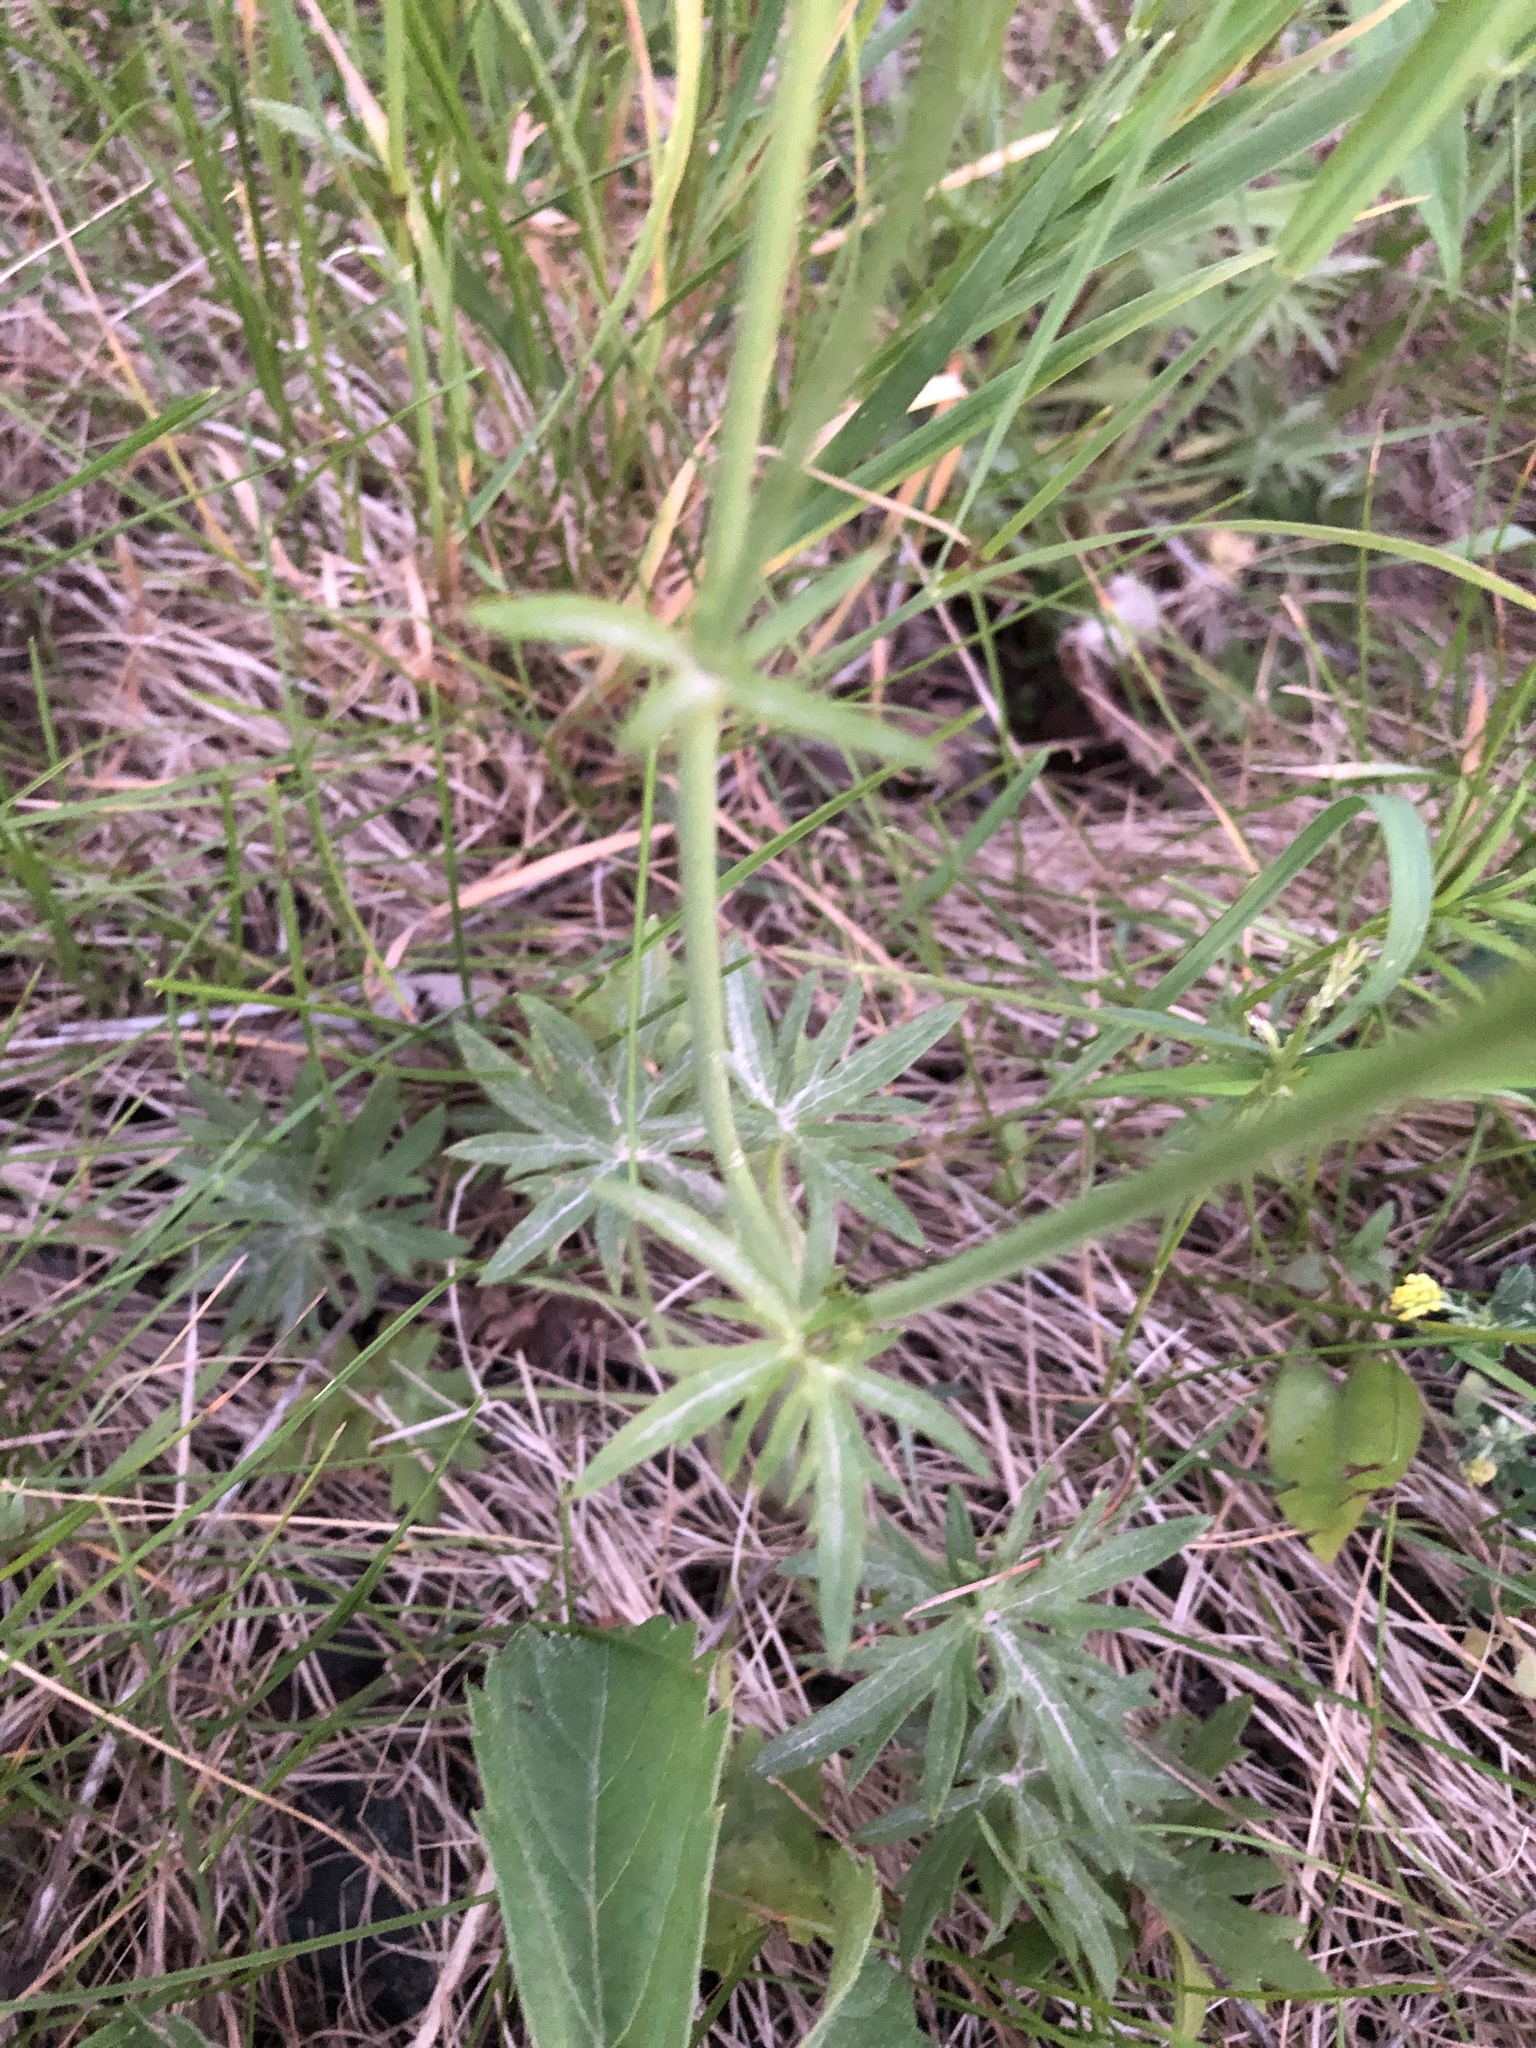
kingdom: Plantae
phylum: Tracheophyta
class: Magnoliopsida
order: Ranunculales
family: Ranunculaceae
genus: Ranunculus
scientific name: Ranunculus acris
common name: Meadow buttercup
